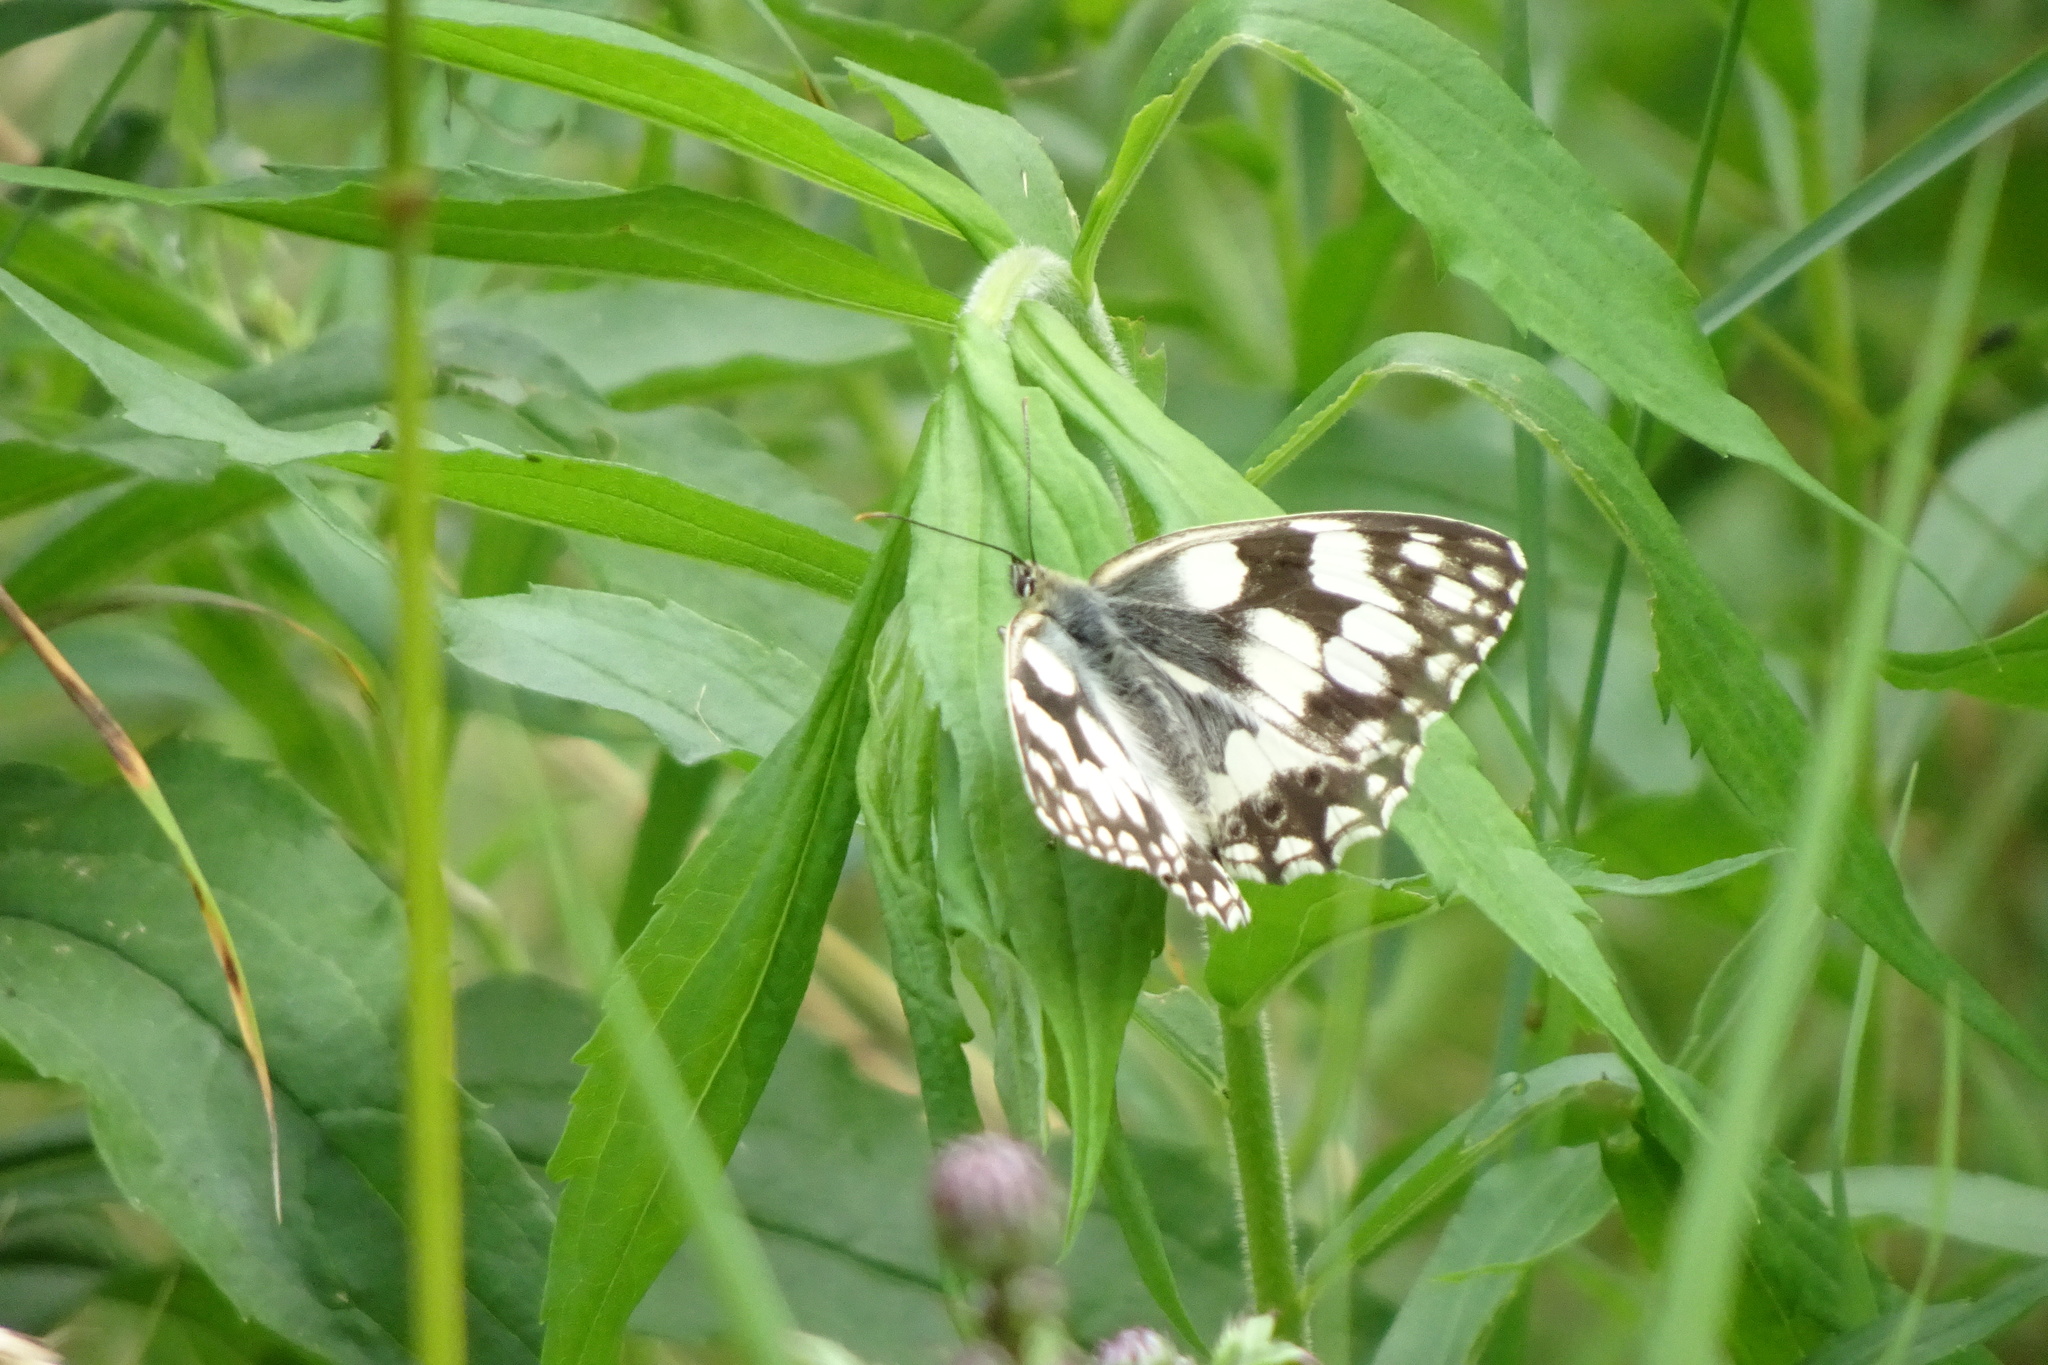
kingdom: Animalia
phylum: Arthropoda
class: Insecta
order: Lepidoptera
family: Nymphalidae
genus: Melanargia
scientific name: Melanargia galathea
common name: Marbled white
